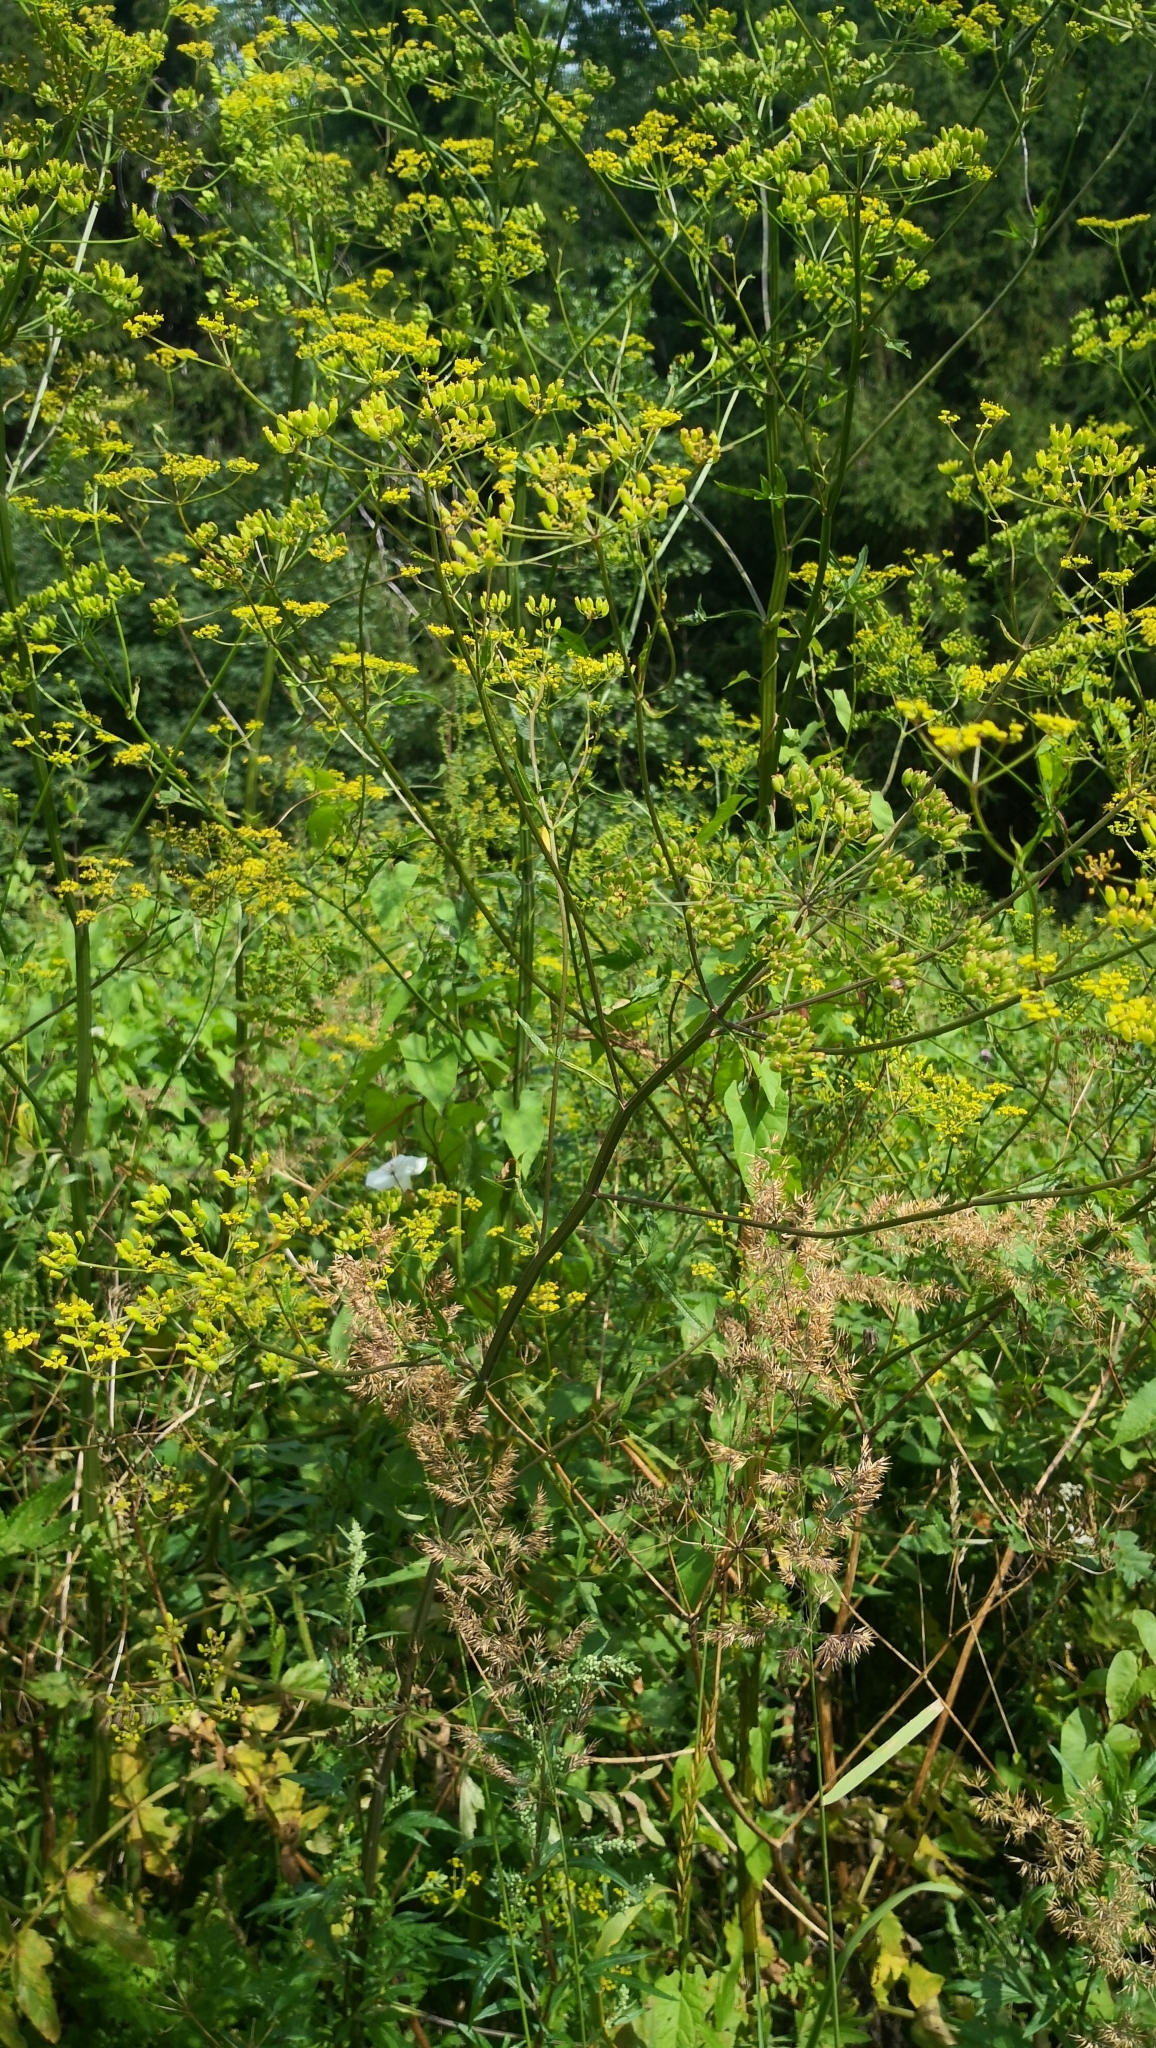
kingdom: Plantae
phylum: Tracheophyta
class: Magnoliopsida
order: Apiales
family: Apiaceae
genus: Pastinaca
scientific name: Pastinaca sativa
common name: Wild parsnip
